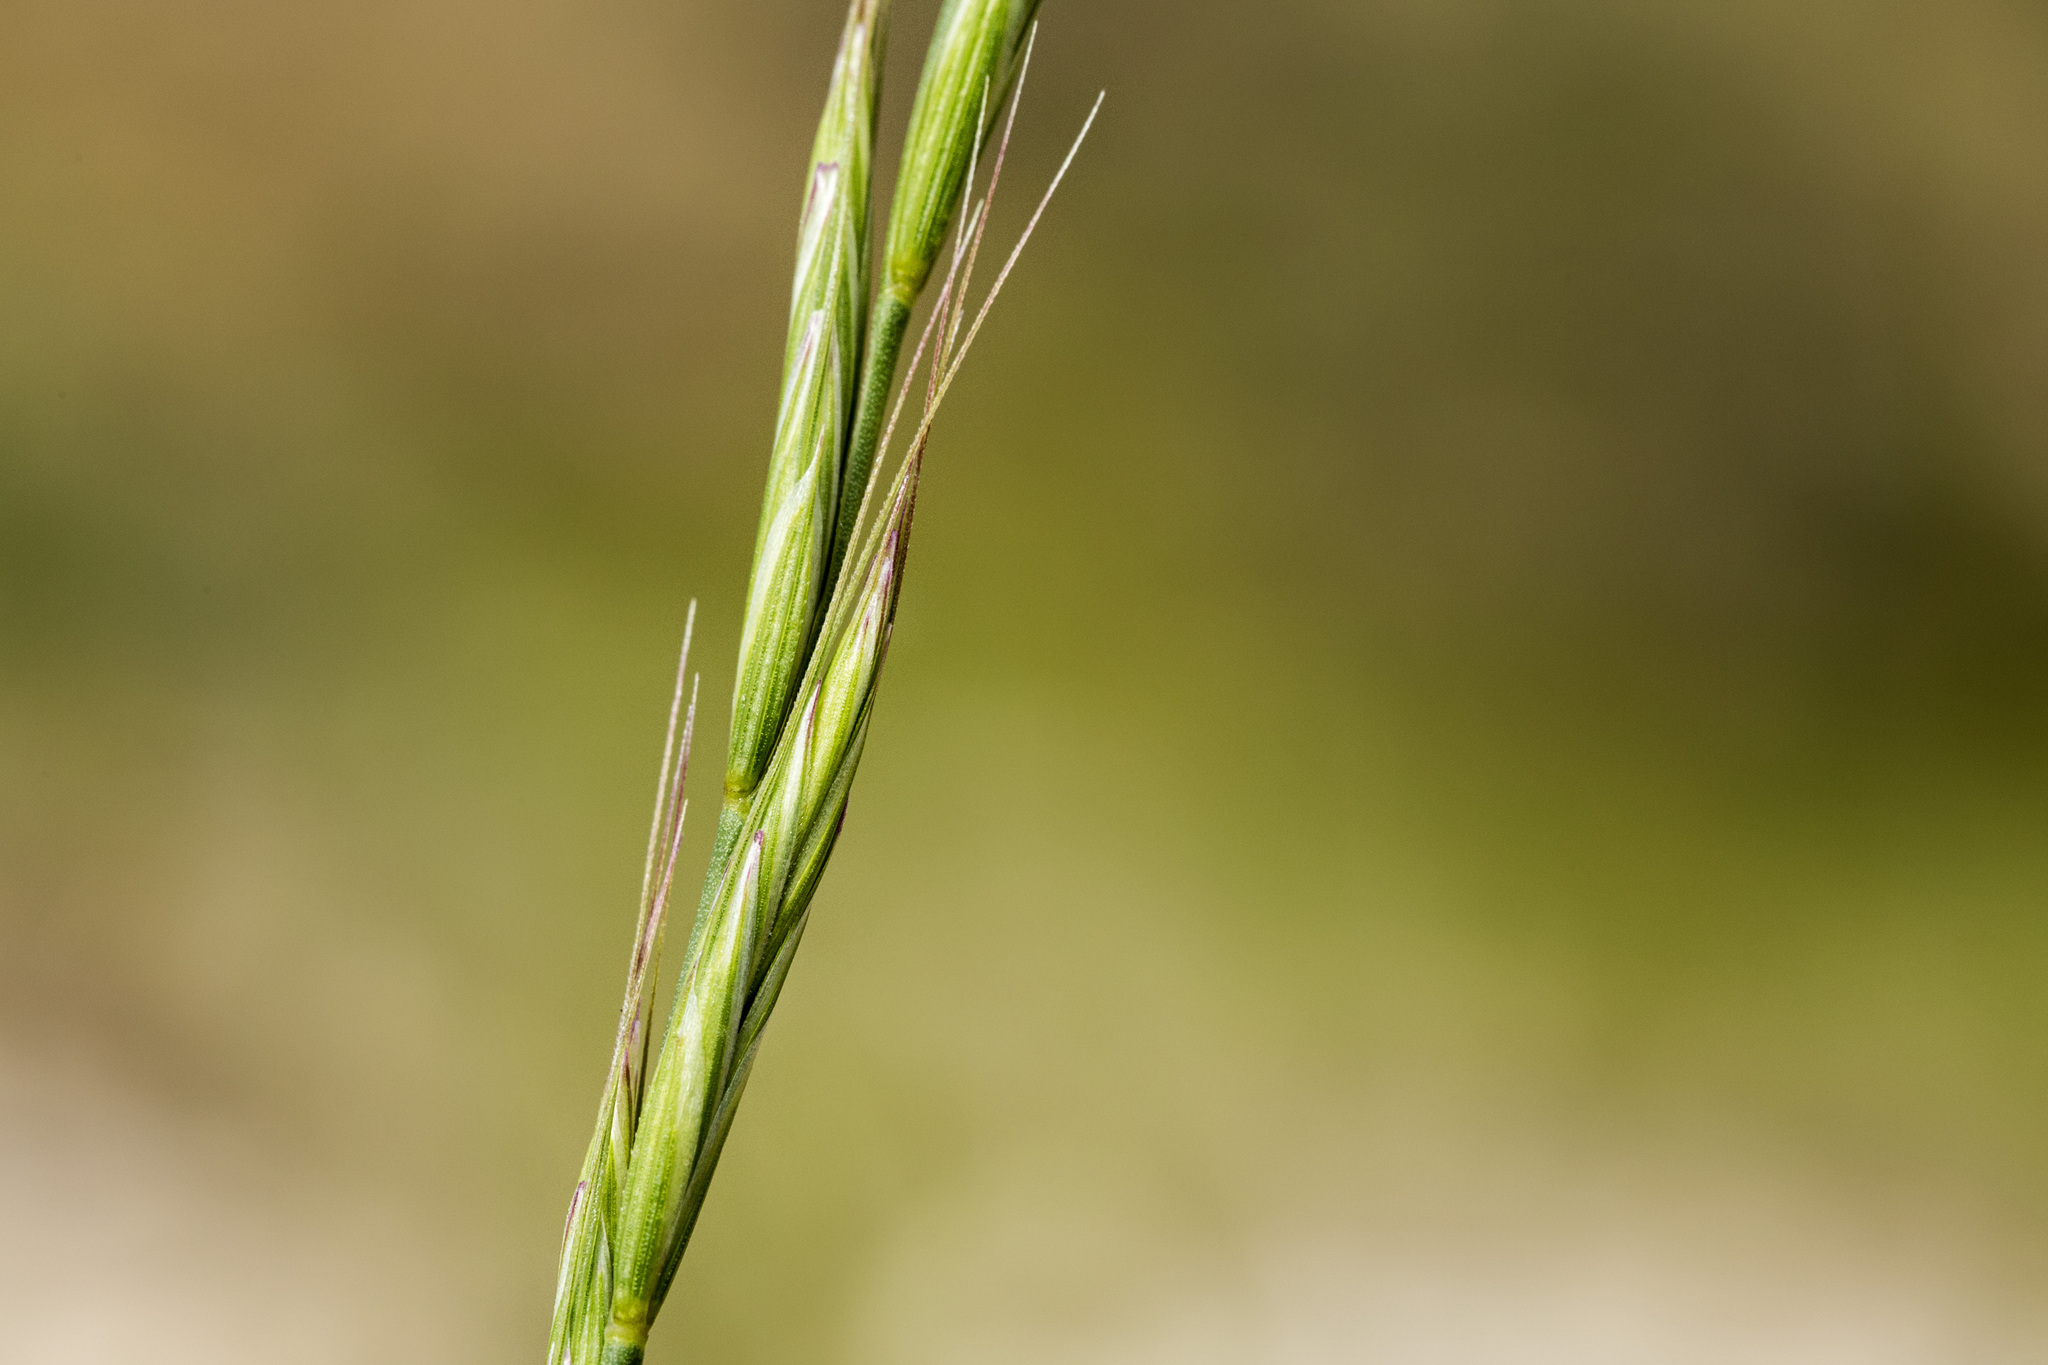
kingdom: Plantae
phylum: Tracheophyta
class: Liliopsida
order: Poales
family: Poaceae
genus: Pseudoroegneria
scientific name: Pseudoroegneria spicata
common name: Bluebunch wheatgrass
